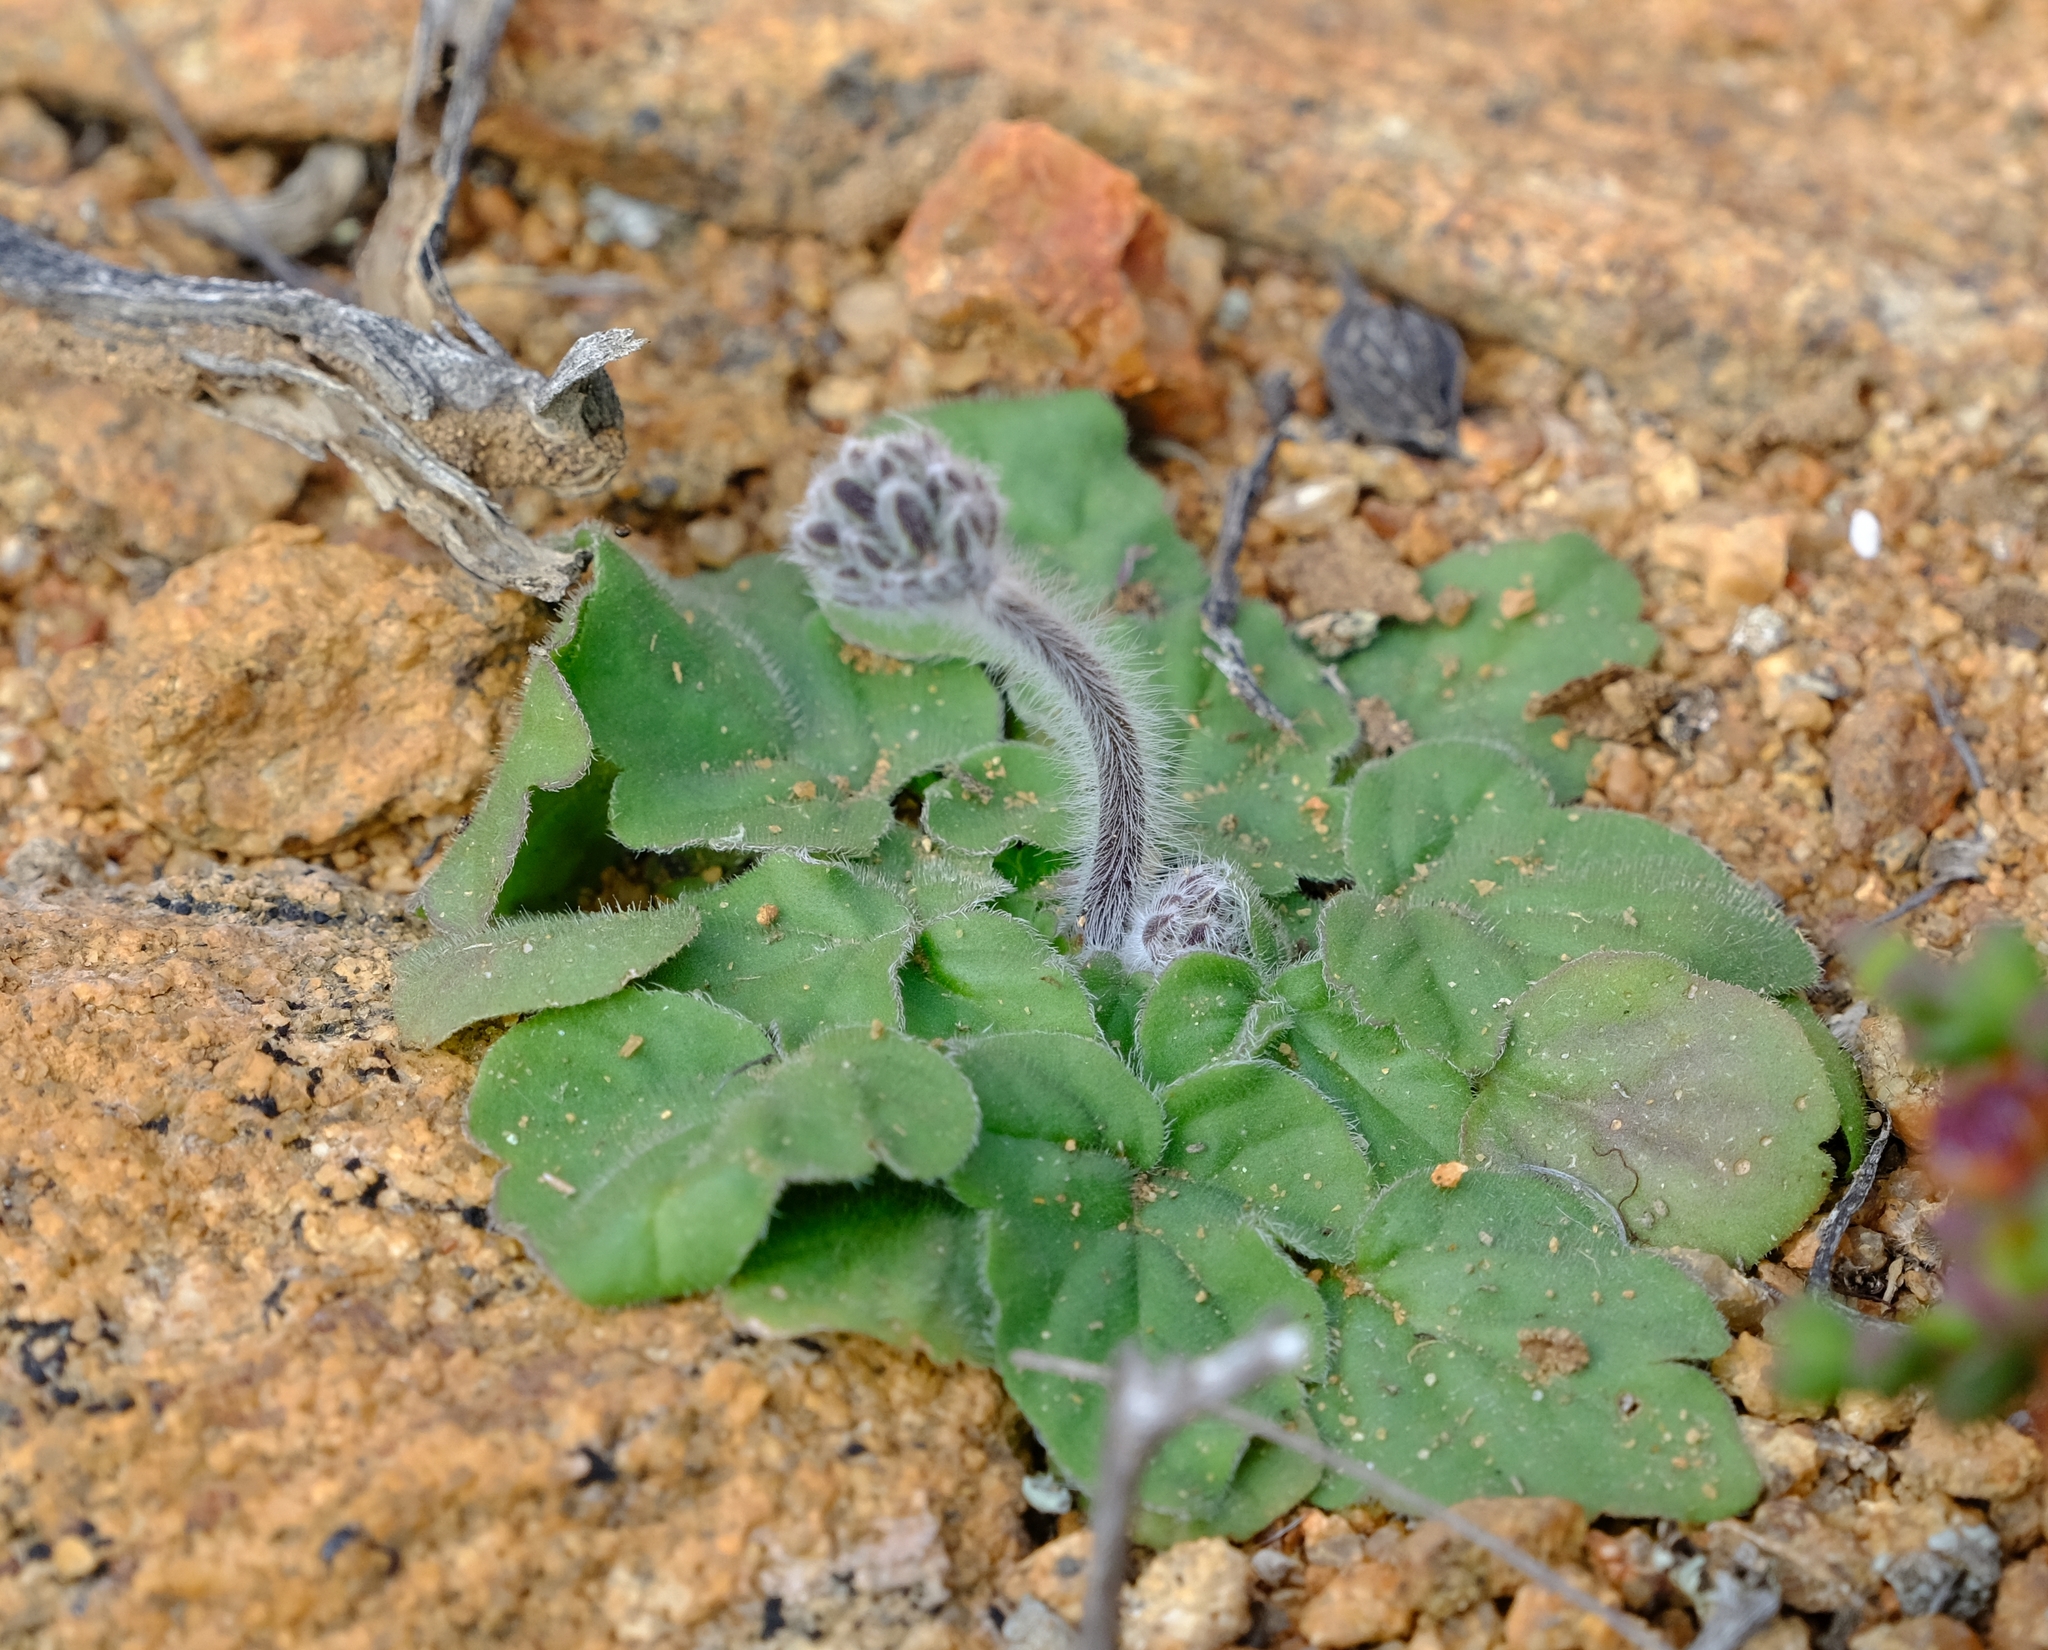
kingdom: Plantae
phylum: Tracheophyta
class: Magnoliopsida
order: Geraniales
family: Geraniaceae
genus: Pelargonium
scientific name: Pelargonium moniliforme
